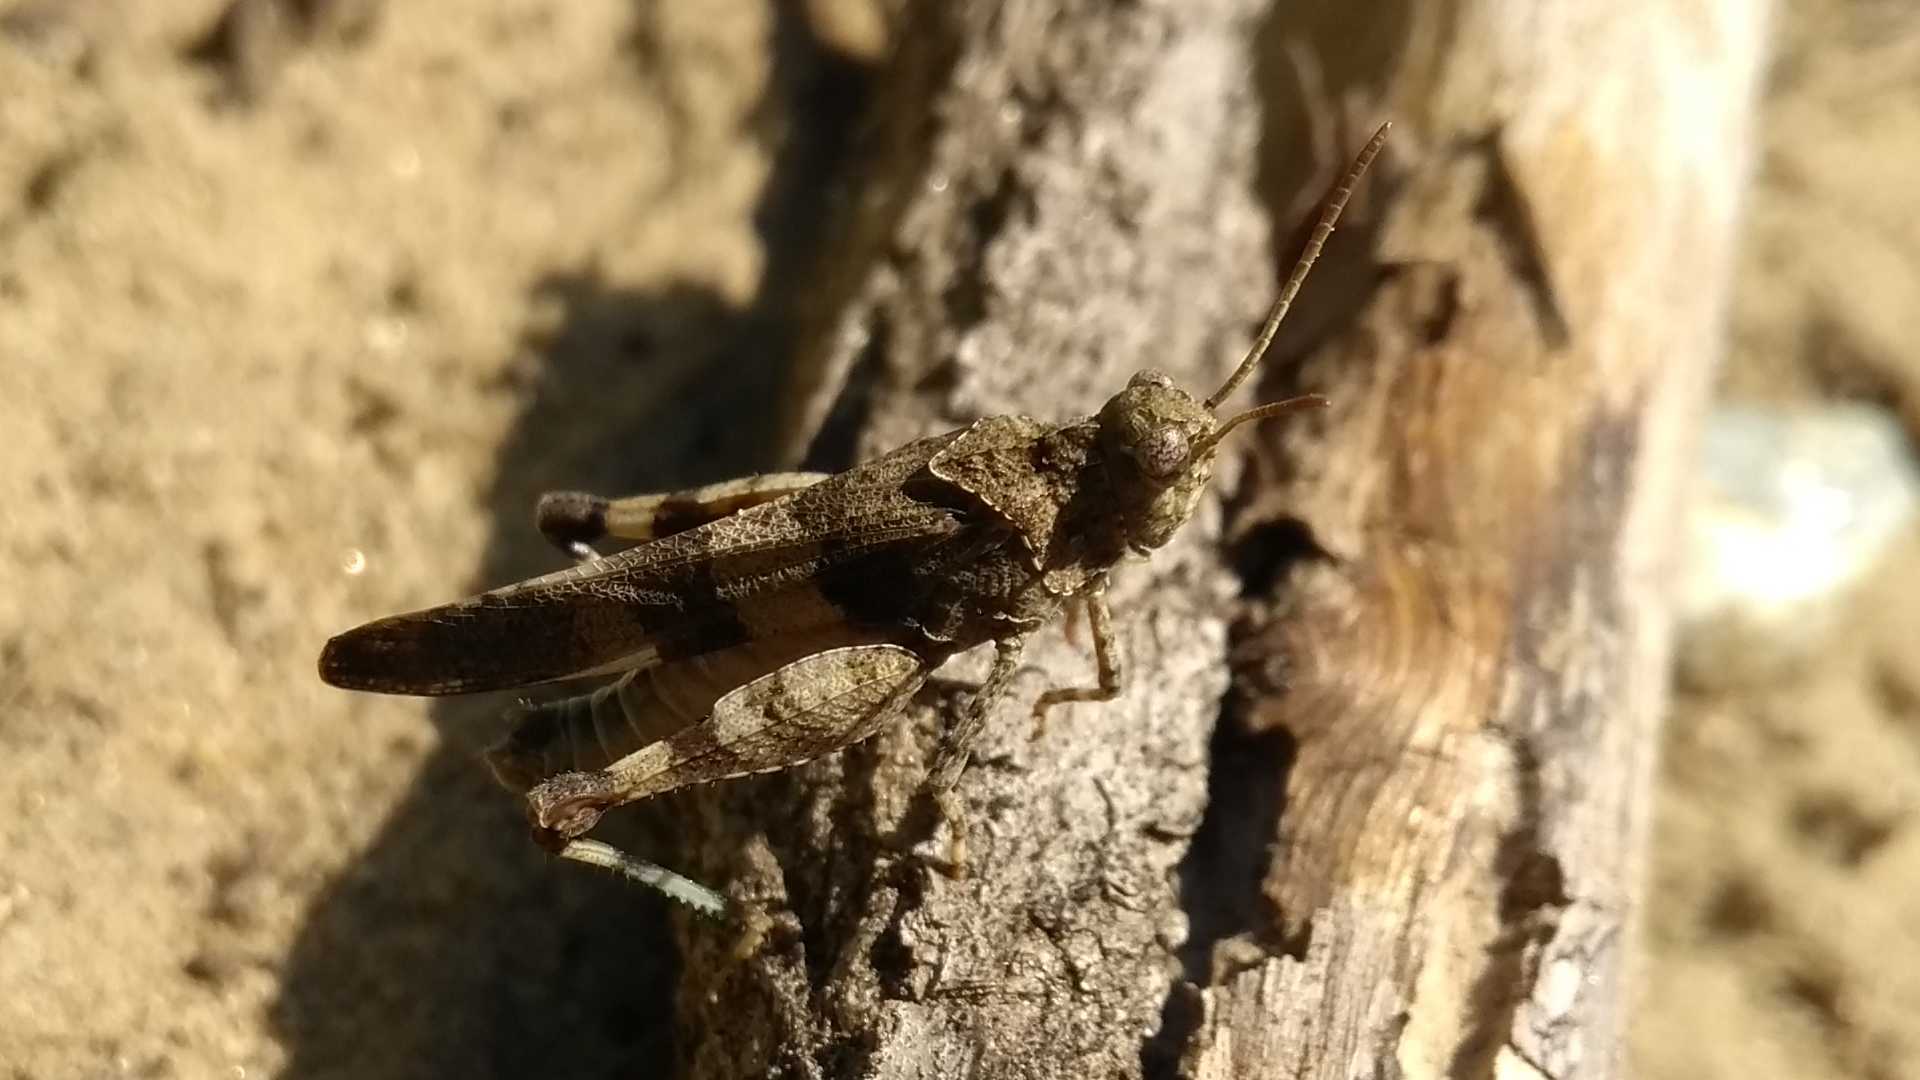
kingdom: Animalia
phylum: Arthropoda
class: Insecta
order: Orthoptera
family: Acrididae
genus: Oedipoda
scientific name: Oedipoda caerulescens
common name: Blue-winged grasshopper
